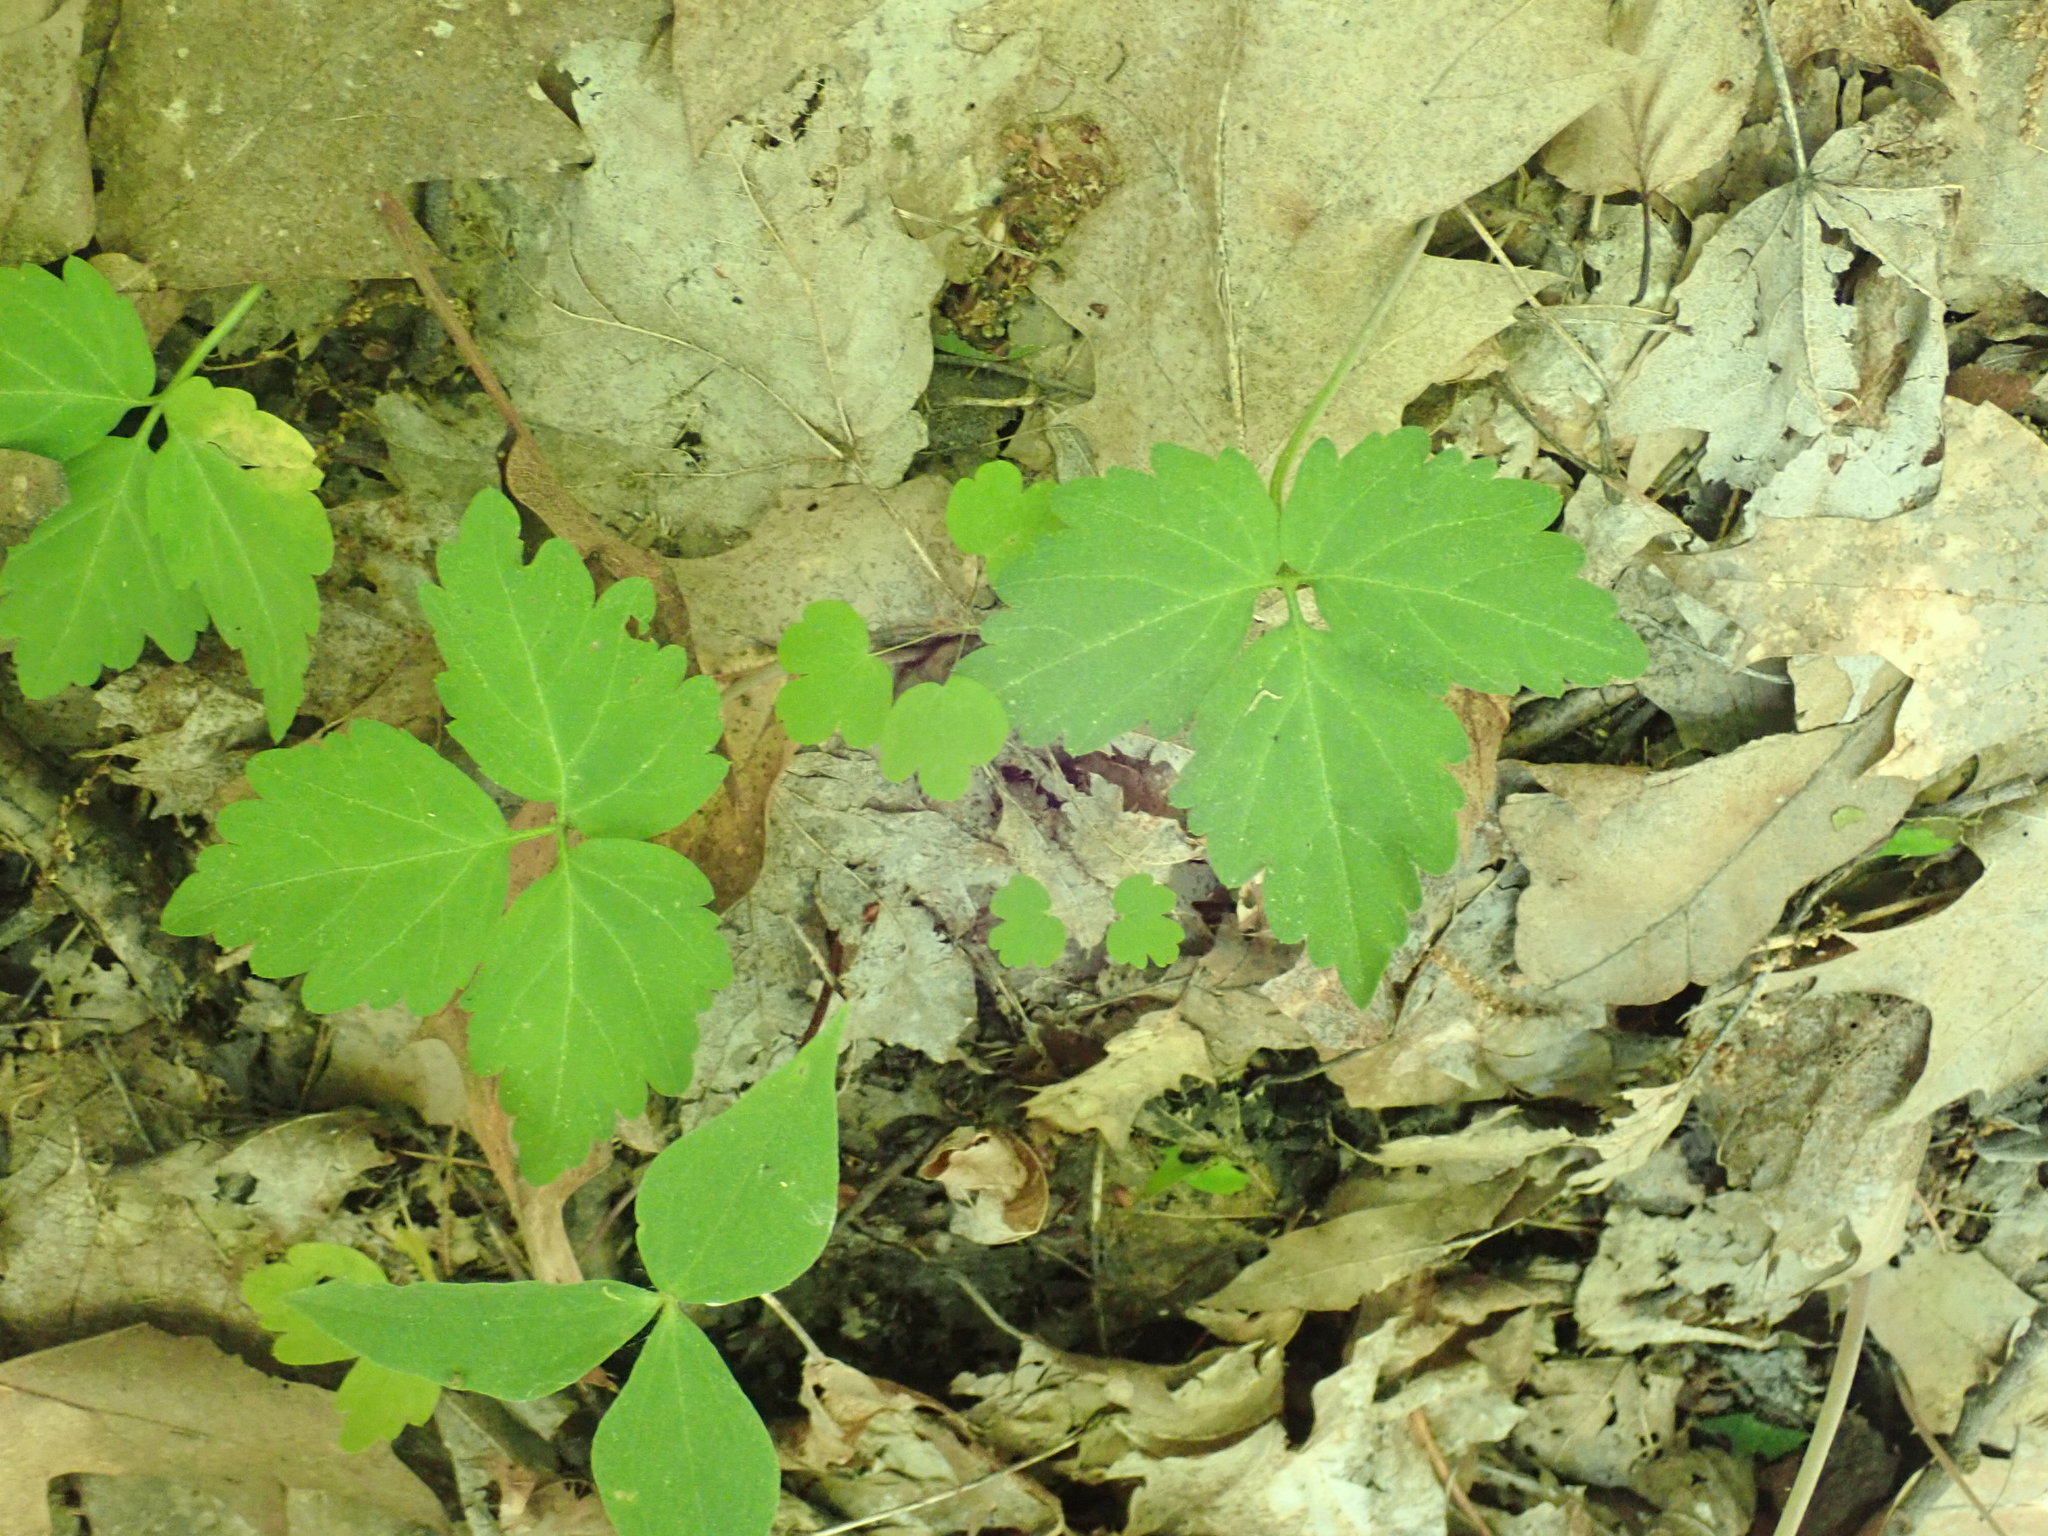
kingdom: Plantae
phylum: Tracheophyta
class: Magnoliopsida
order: Brassicales
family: Brassicaceae
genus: Cardamine
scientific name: Cardamine diphylla
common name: Broad-leaved toothwort
